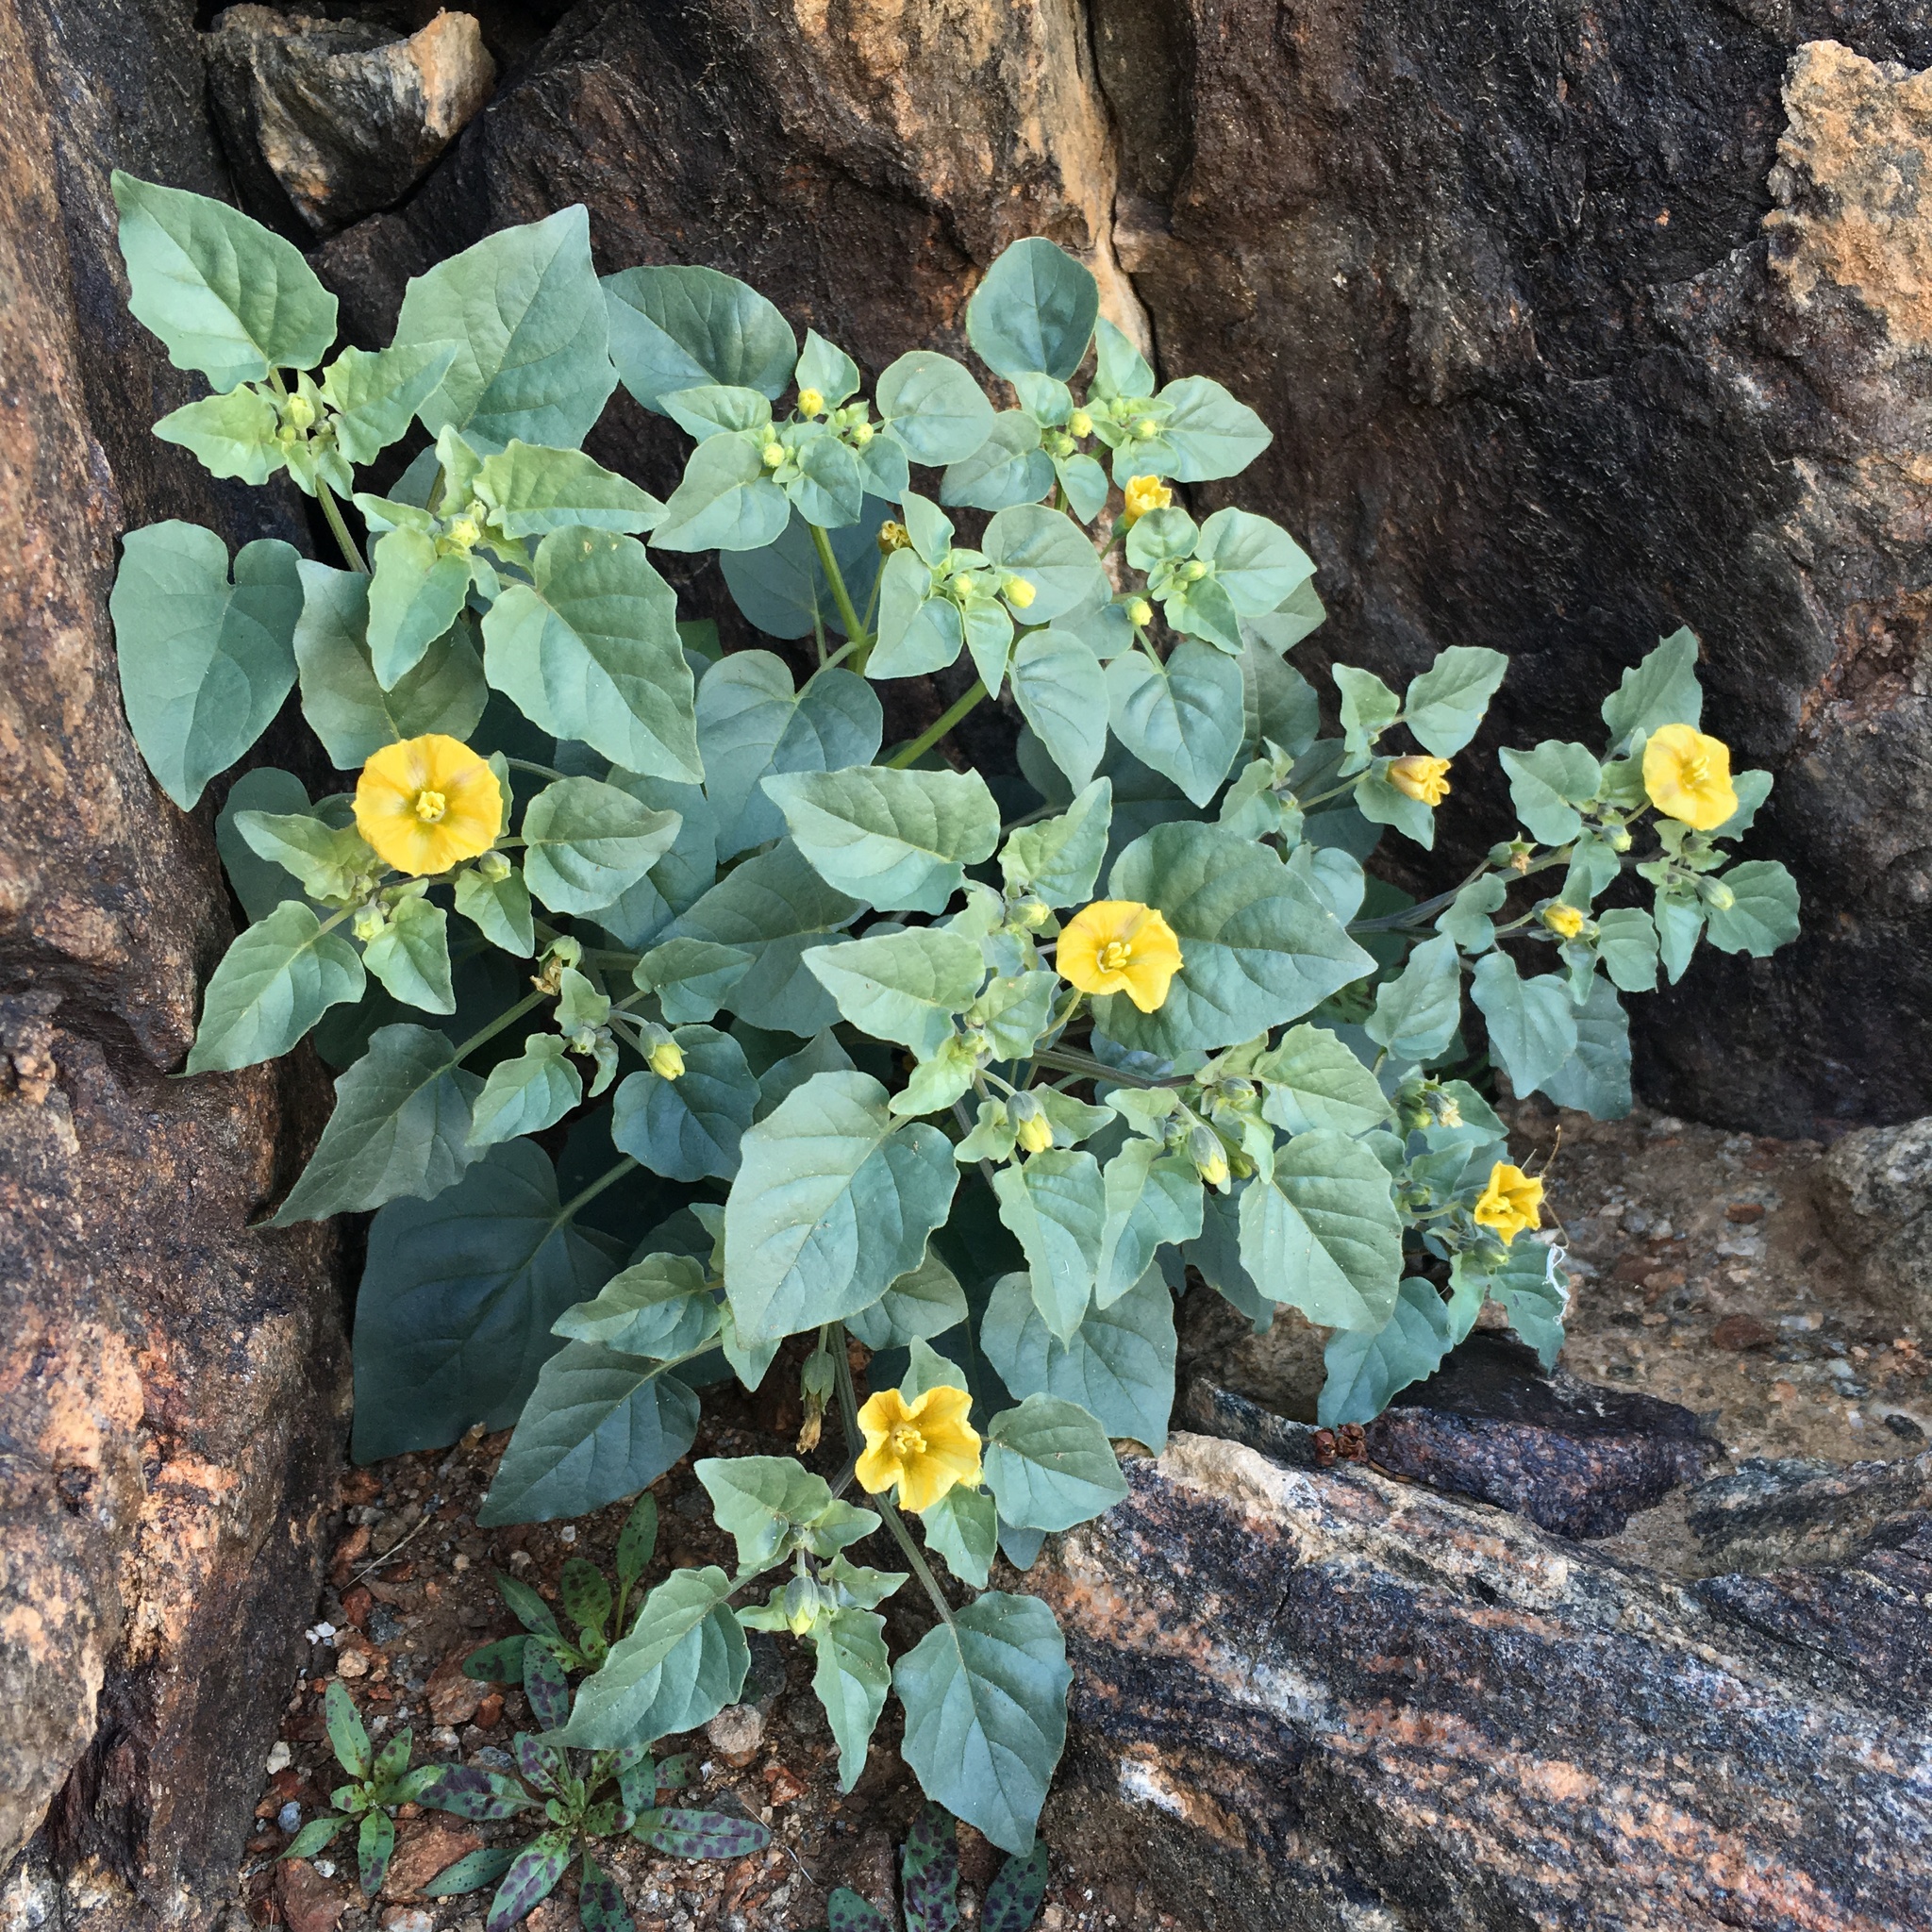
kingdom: Plantae
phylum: Tracheophyta
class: Magnoliopsida
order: Solanales
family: Solanaceae
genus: Physalis
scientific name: Physalis crassifolia
